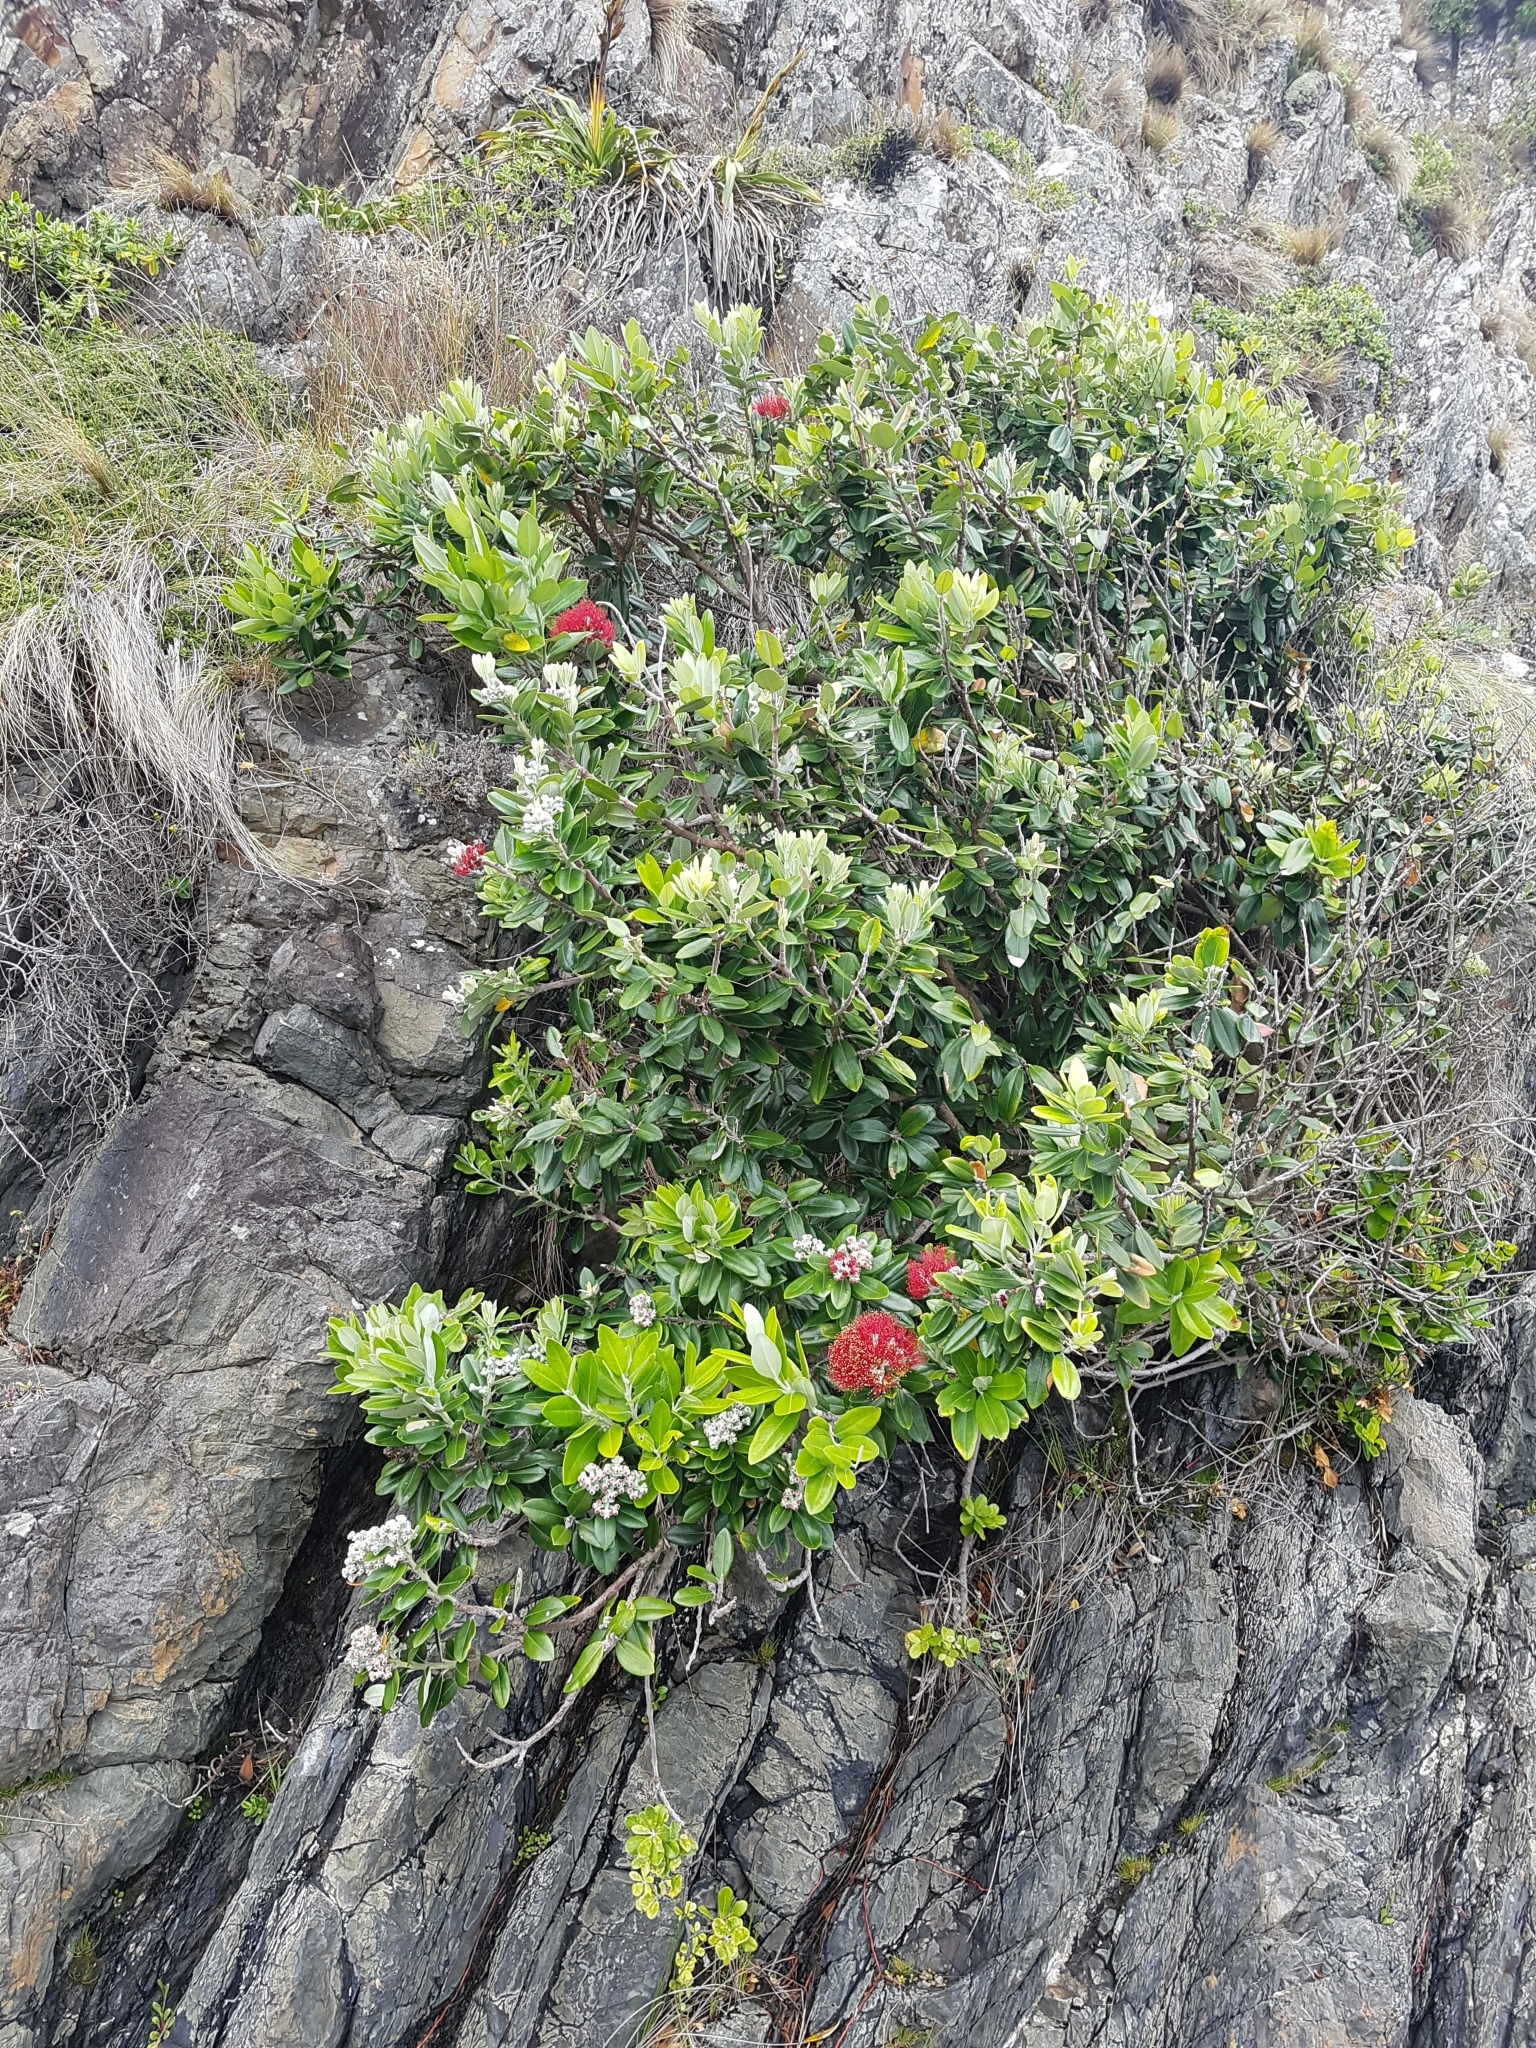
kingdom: Plantae
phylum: Tracheophyta
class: Magnoliopsida
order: Myrtales
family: Myrtaceae
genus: Metrosideros
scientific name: Metrosideros excelsa
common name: New zealand christmastree
